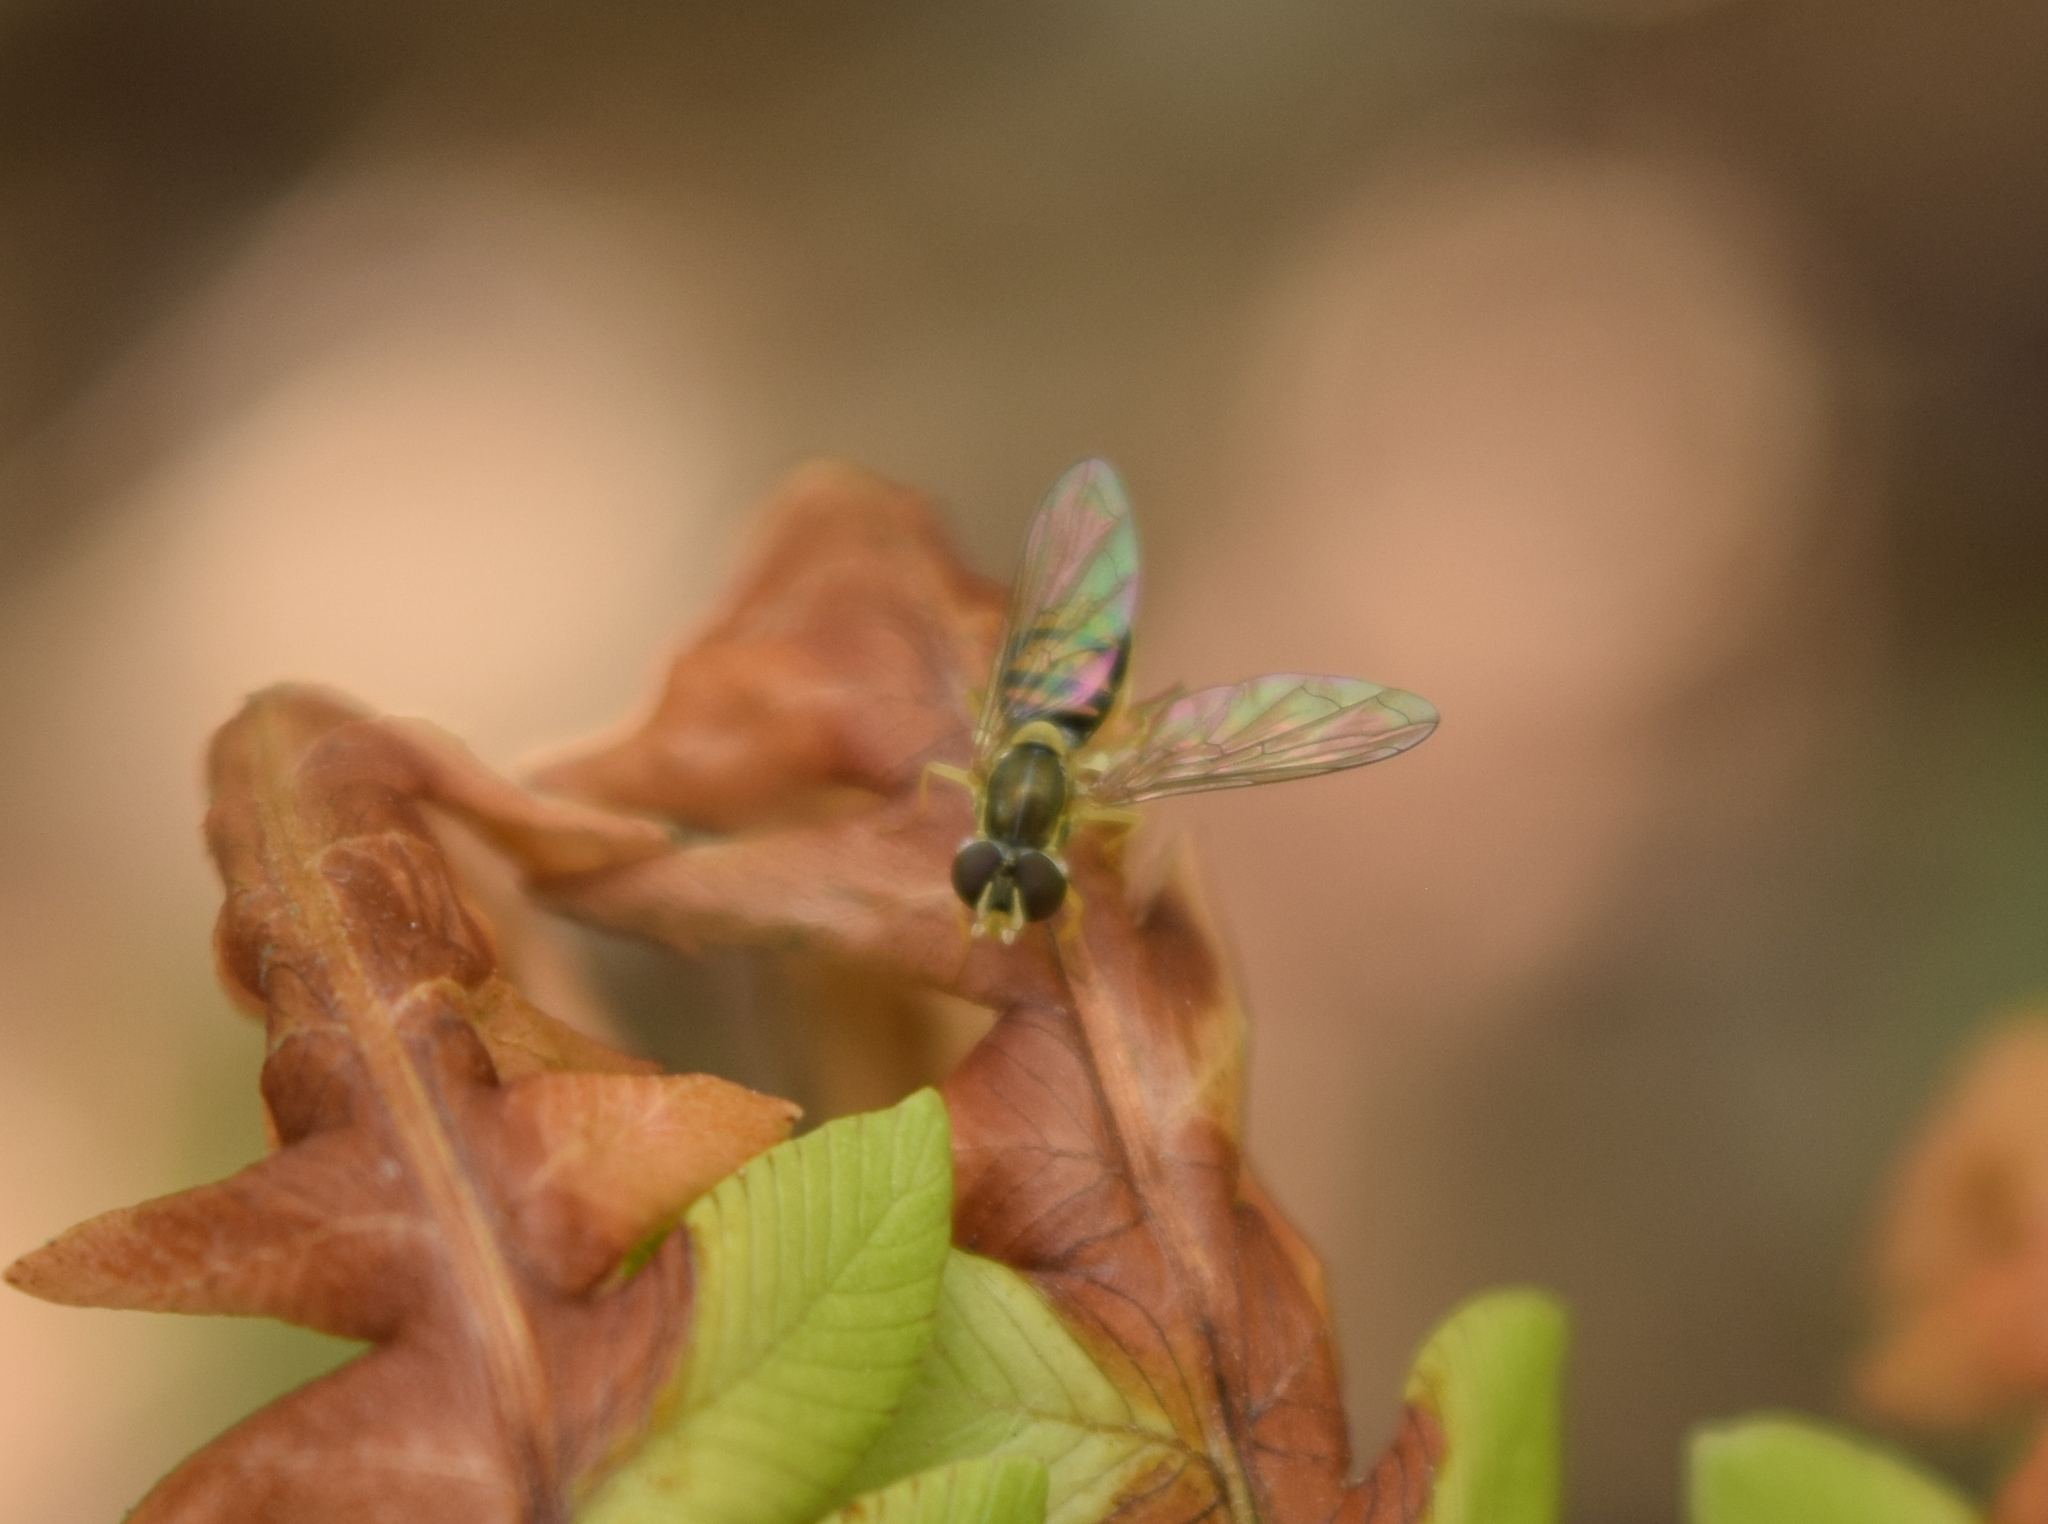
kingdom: Animalia
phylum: Arthropoda
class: Insecta
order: Diptera
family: Syrphidae
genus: Toxomerus
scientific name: Toxomerus marginatus
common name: Syrphid fly
